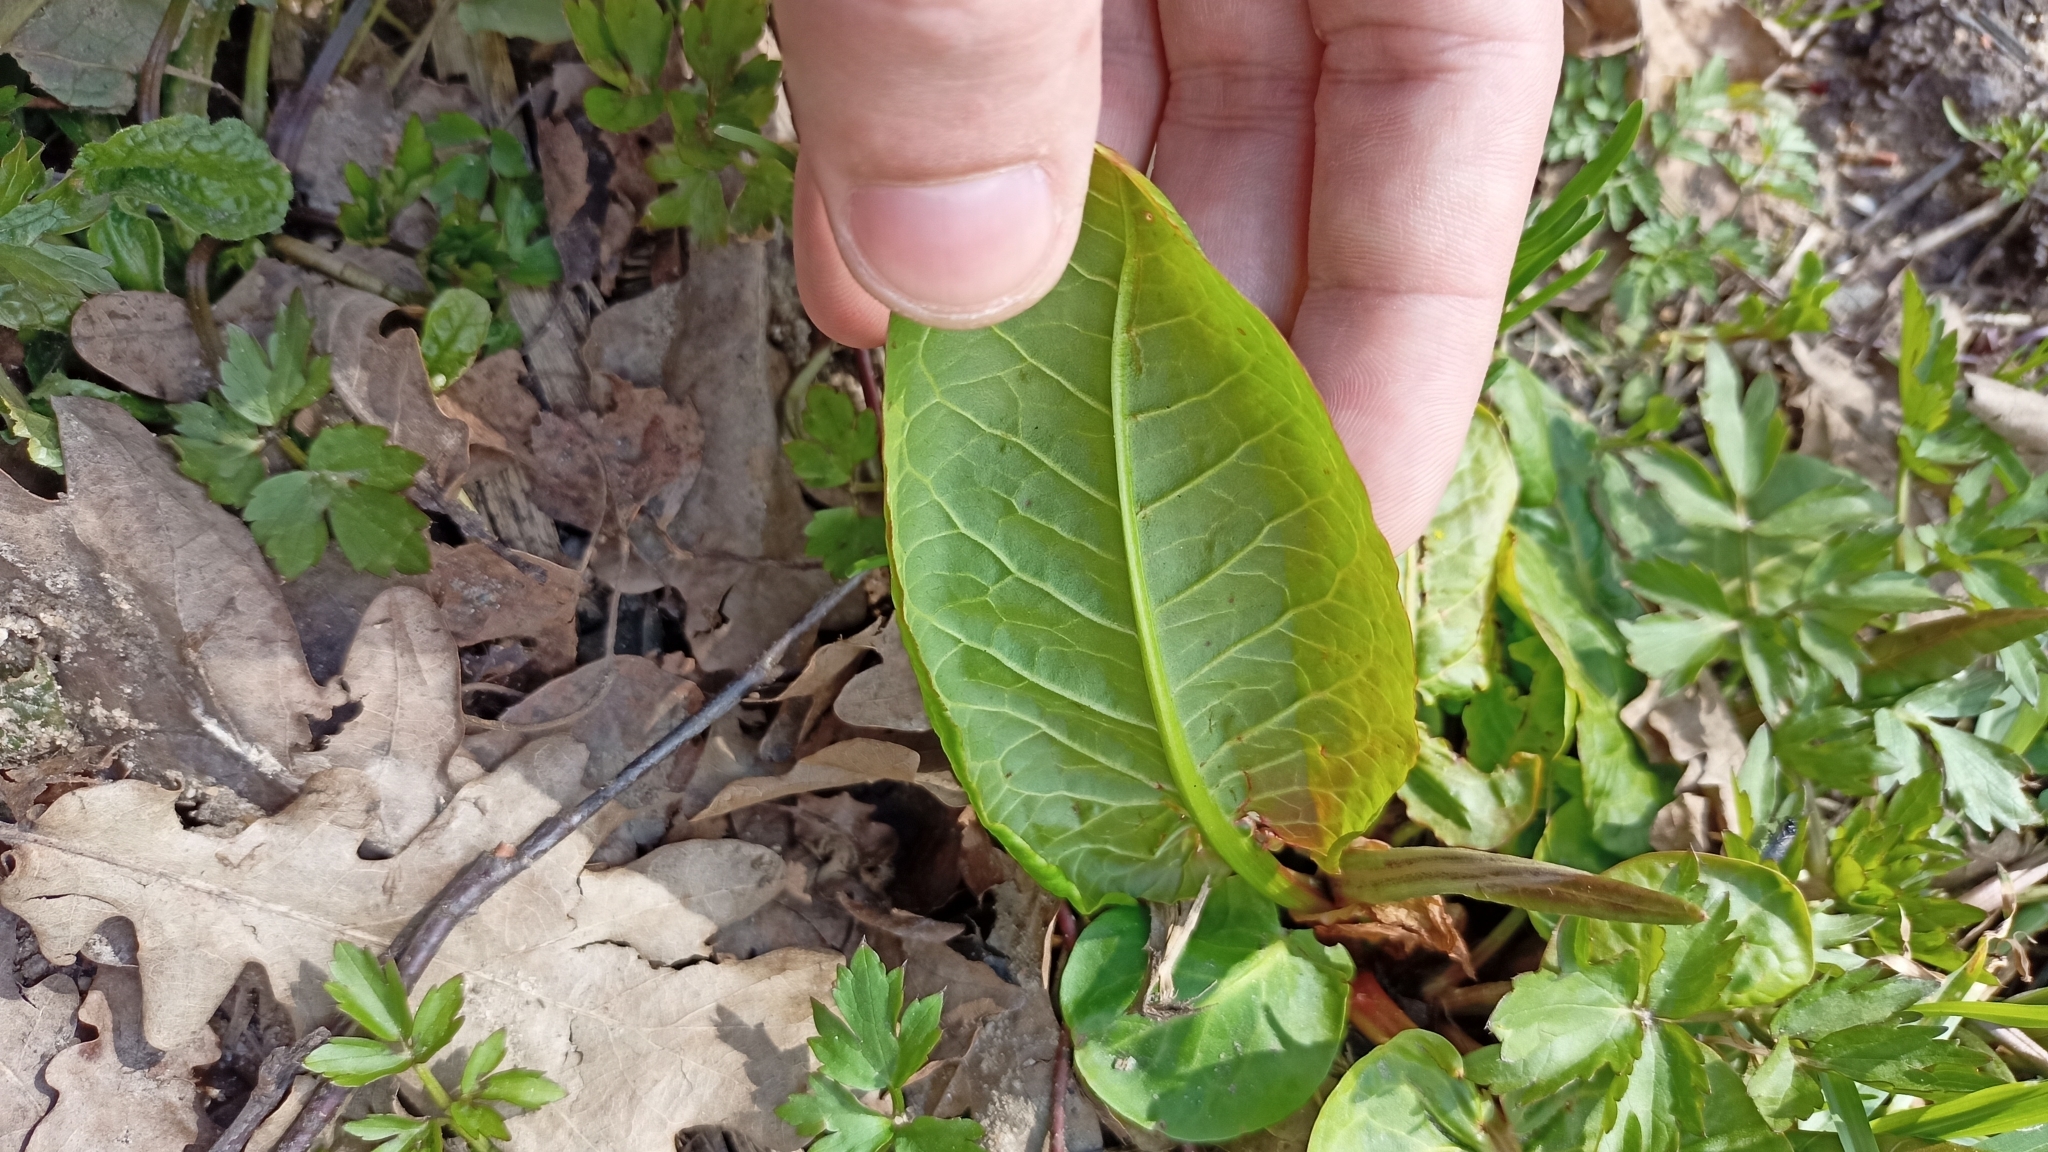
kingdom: Plantae
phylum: Tracheophyta
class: Magnoliopsida
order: Caryophyllales
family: Polygonaceae
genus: Rumex
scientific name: Rumex obtusifolius
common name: Bitter dock
